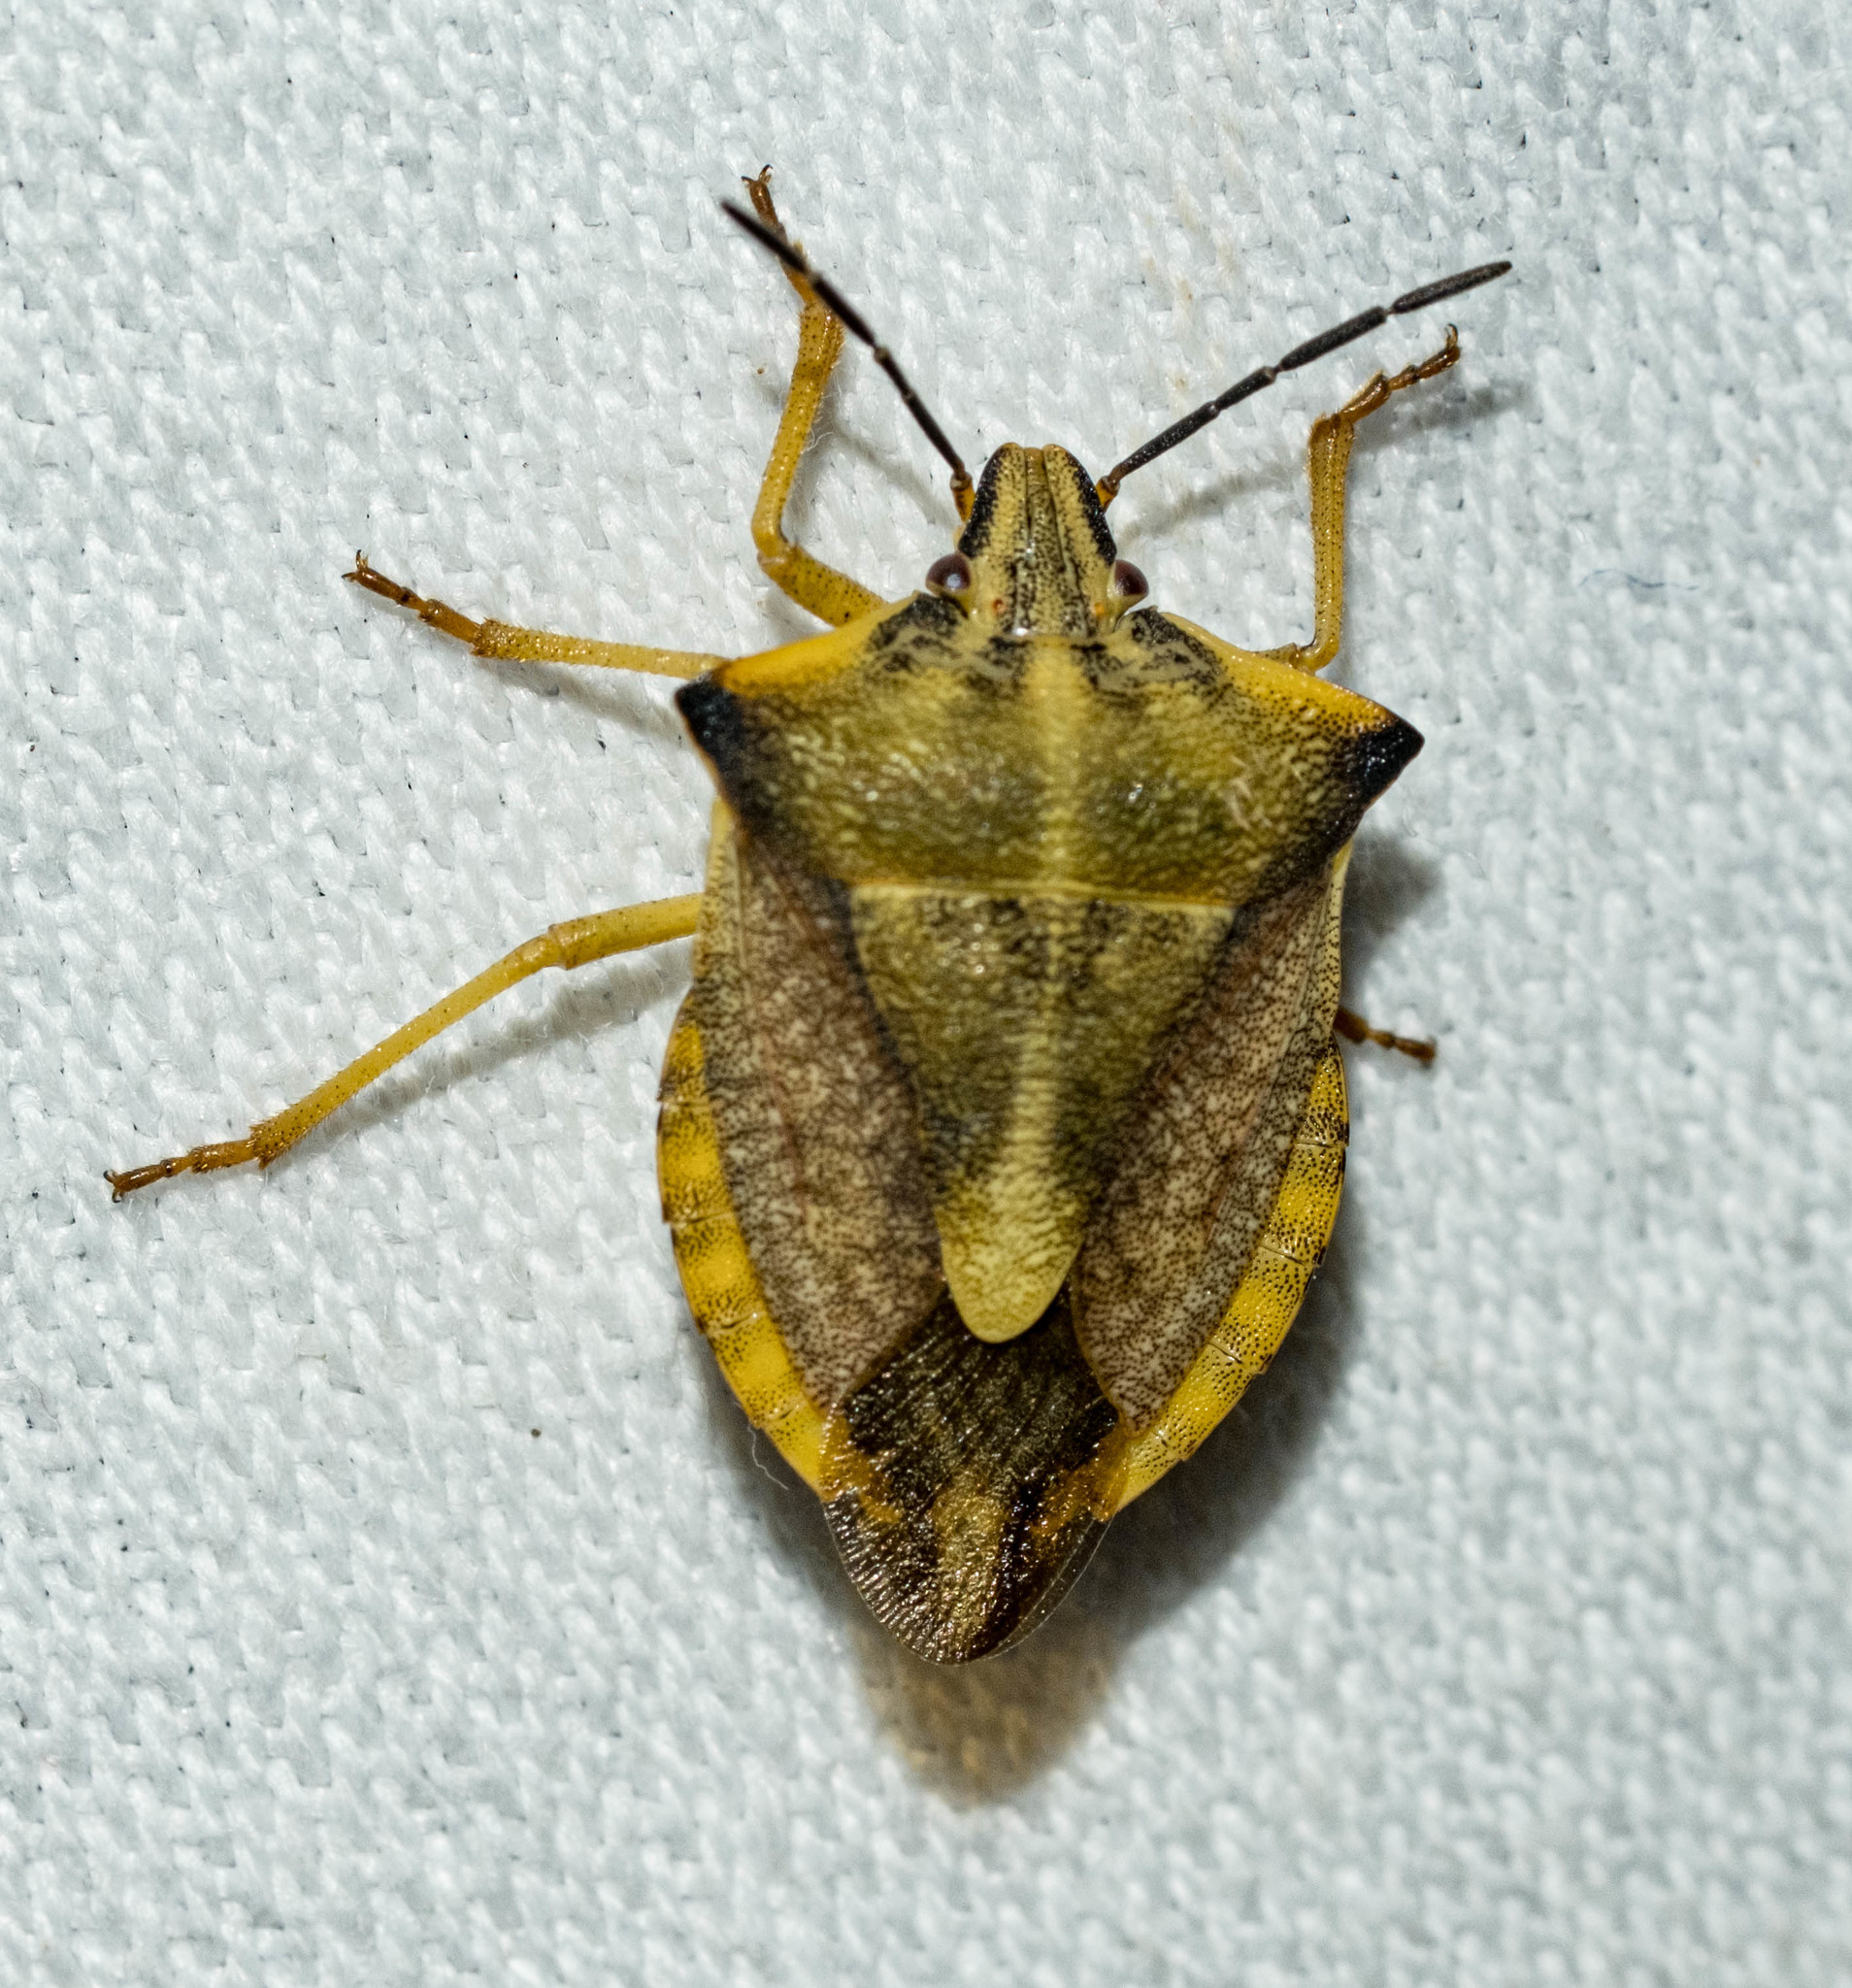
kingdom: Animalia
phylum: Arthropoda
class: Insecta
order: Hemiptera
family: Pentatomidae
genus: Carpocoris
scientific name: Carpocoris fuscispinus
